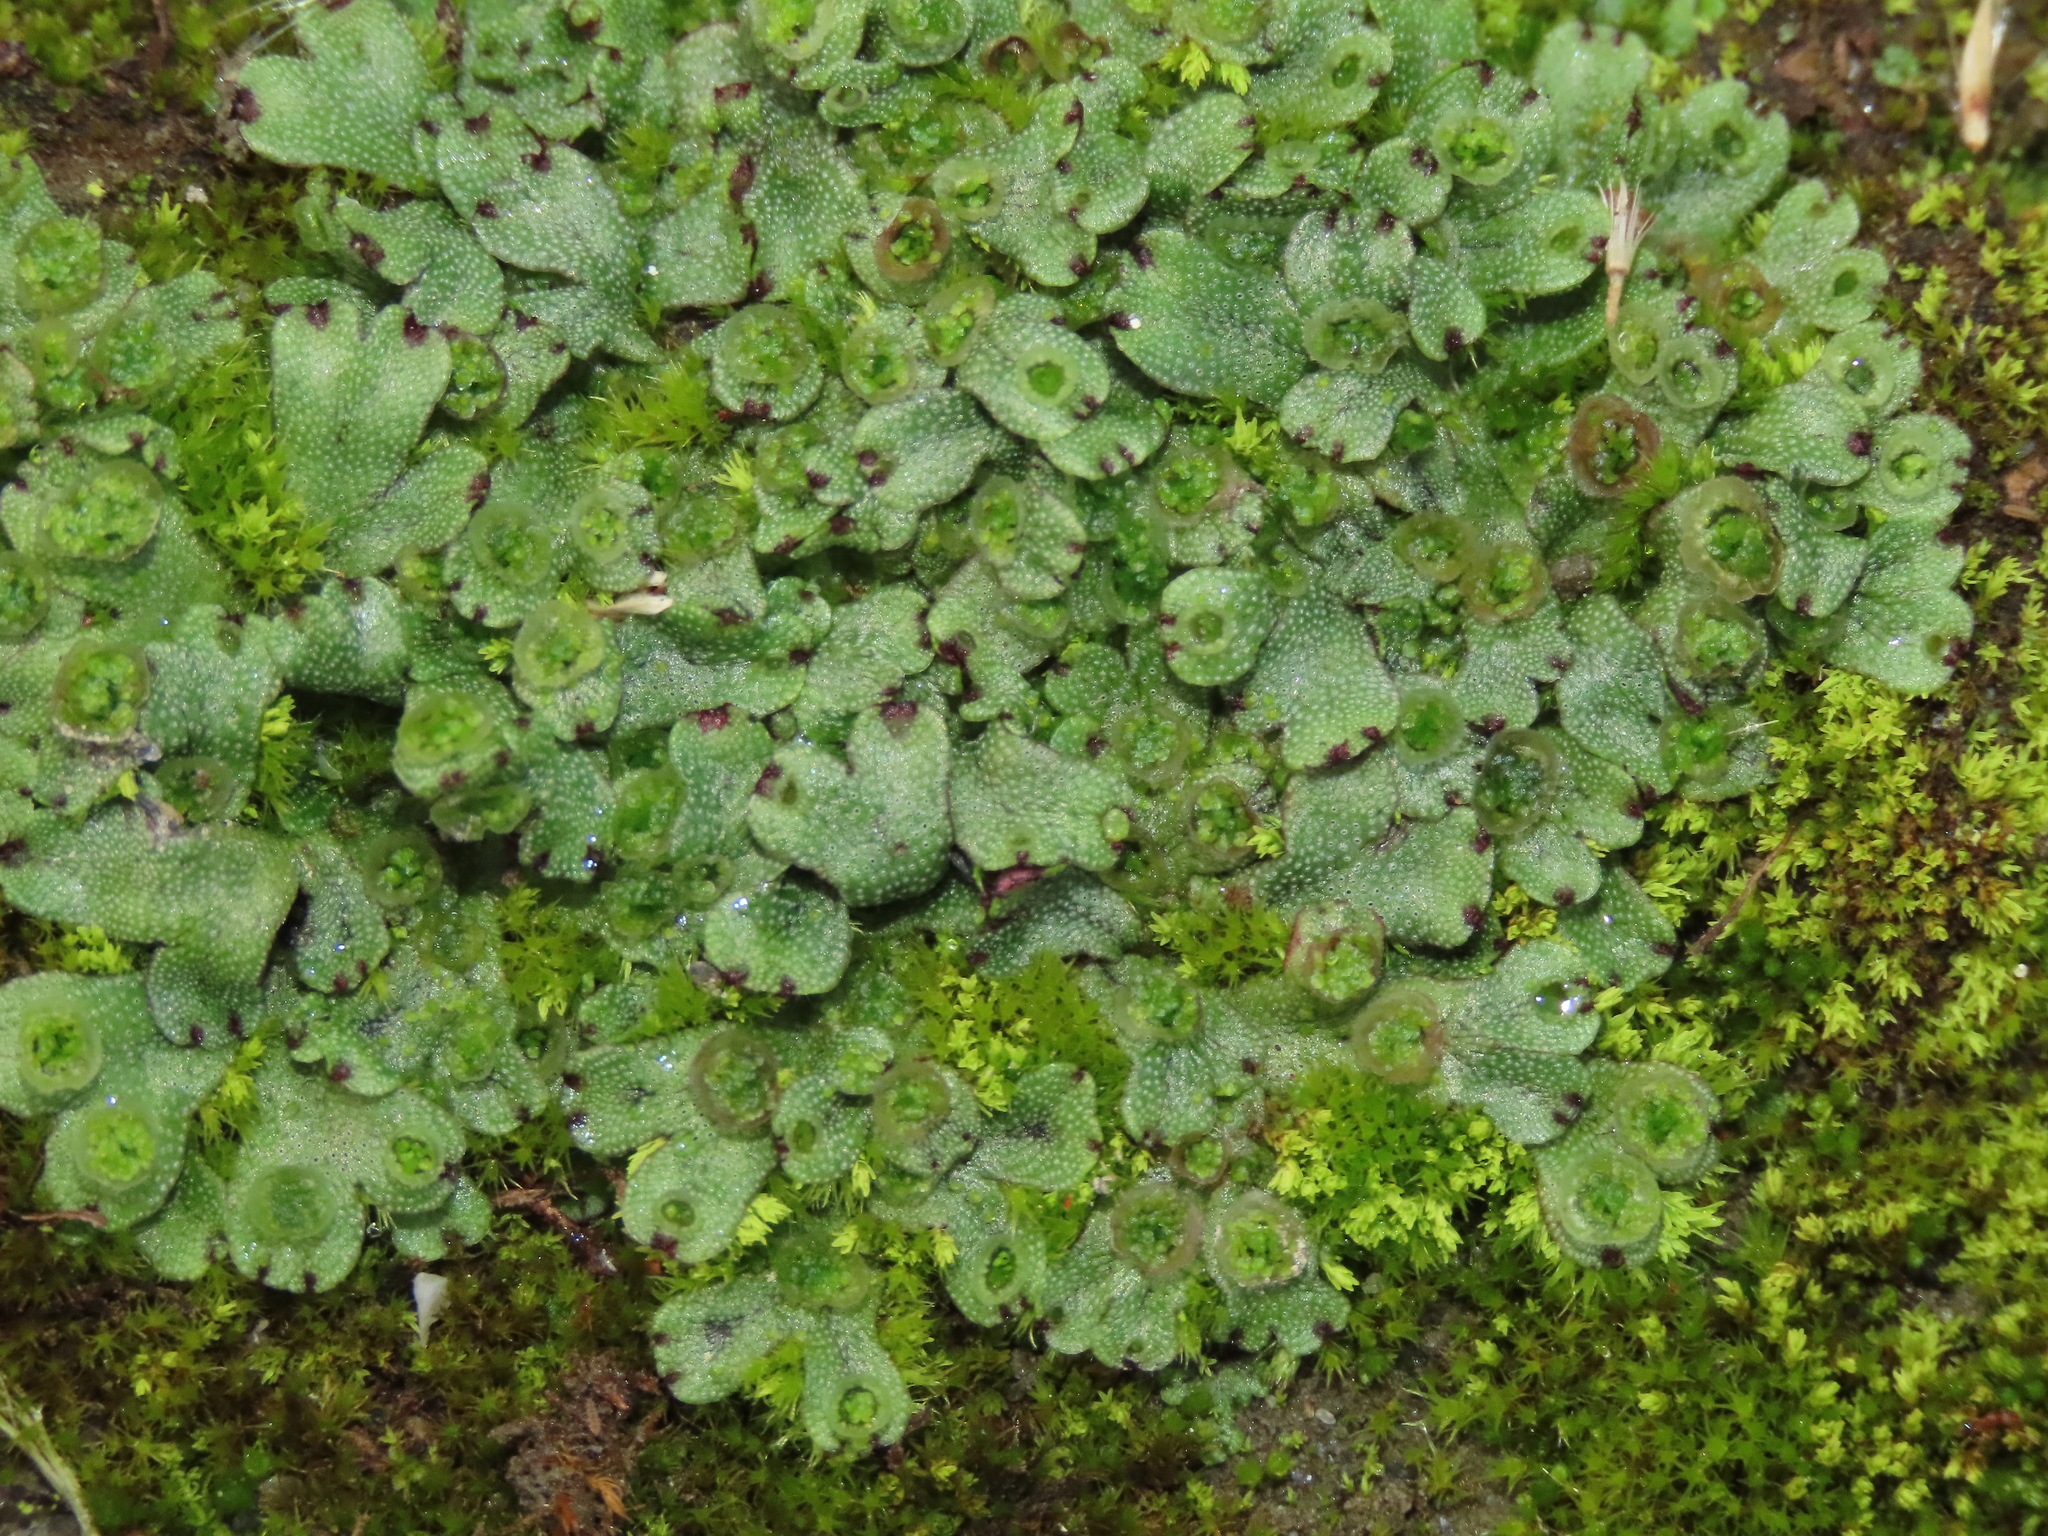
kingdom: Plantae
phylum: Marchantiophyta
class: Marchantiopsida
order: Marchantiales
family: Marchantiaceae
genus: Marchantia
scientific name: Marchantia emarginata
